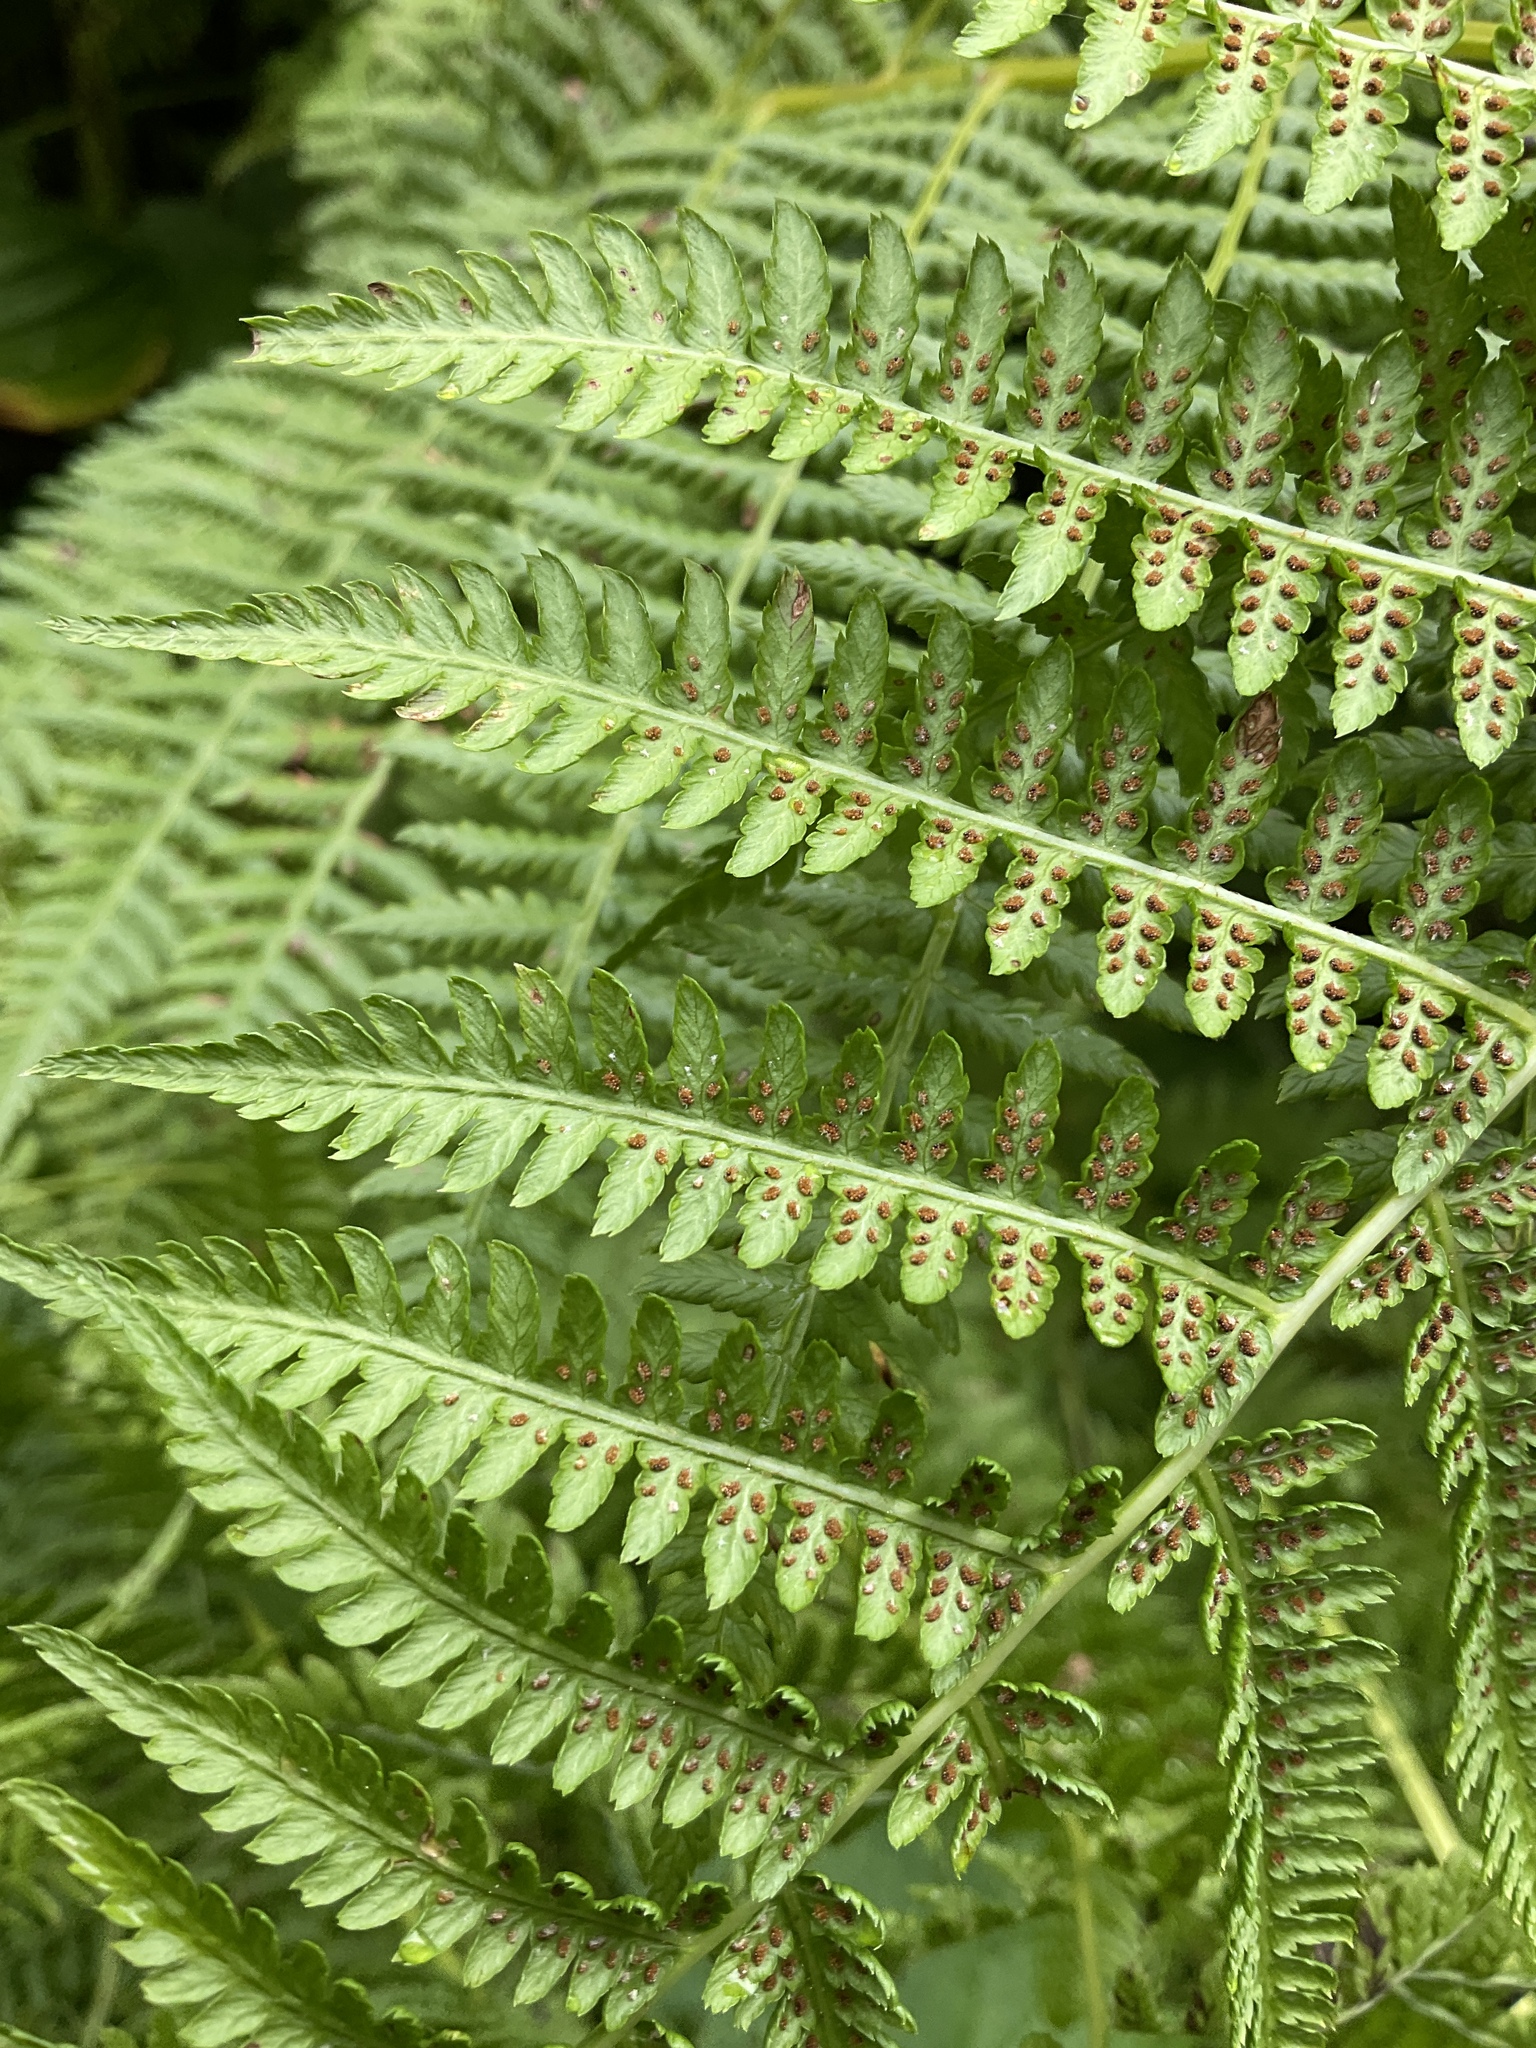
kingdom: Plantae
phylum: Tracheophyta
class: Polypodiopsida
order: Polypodiales
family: Athyriaceae
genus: Athyrium
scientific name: Athyrium filix-femina
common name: Lady fern
